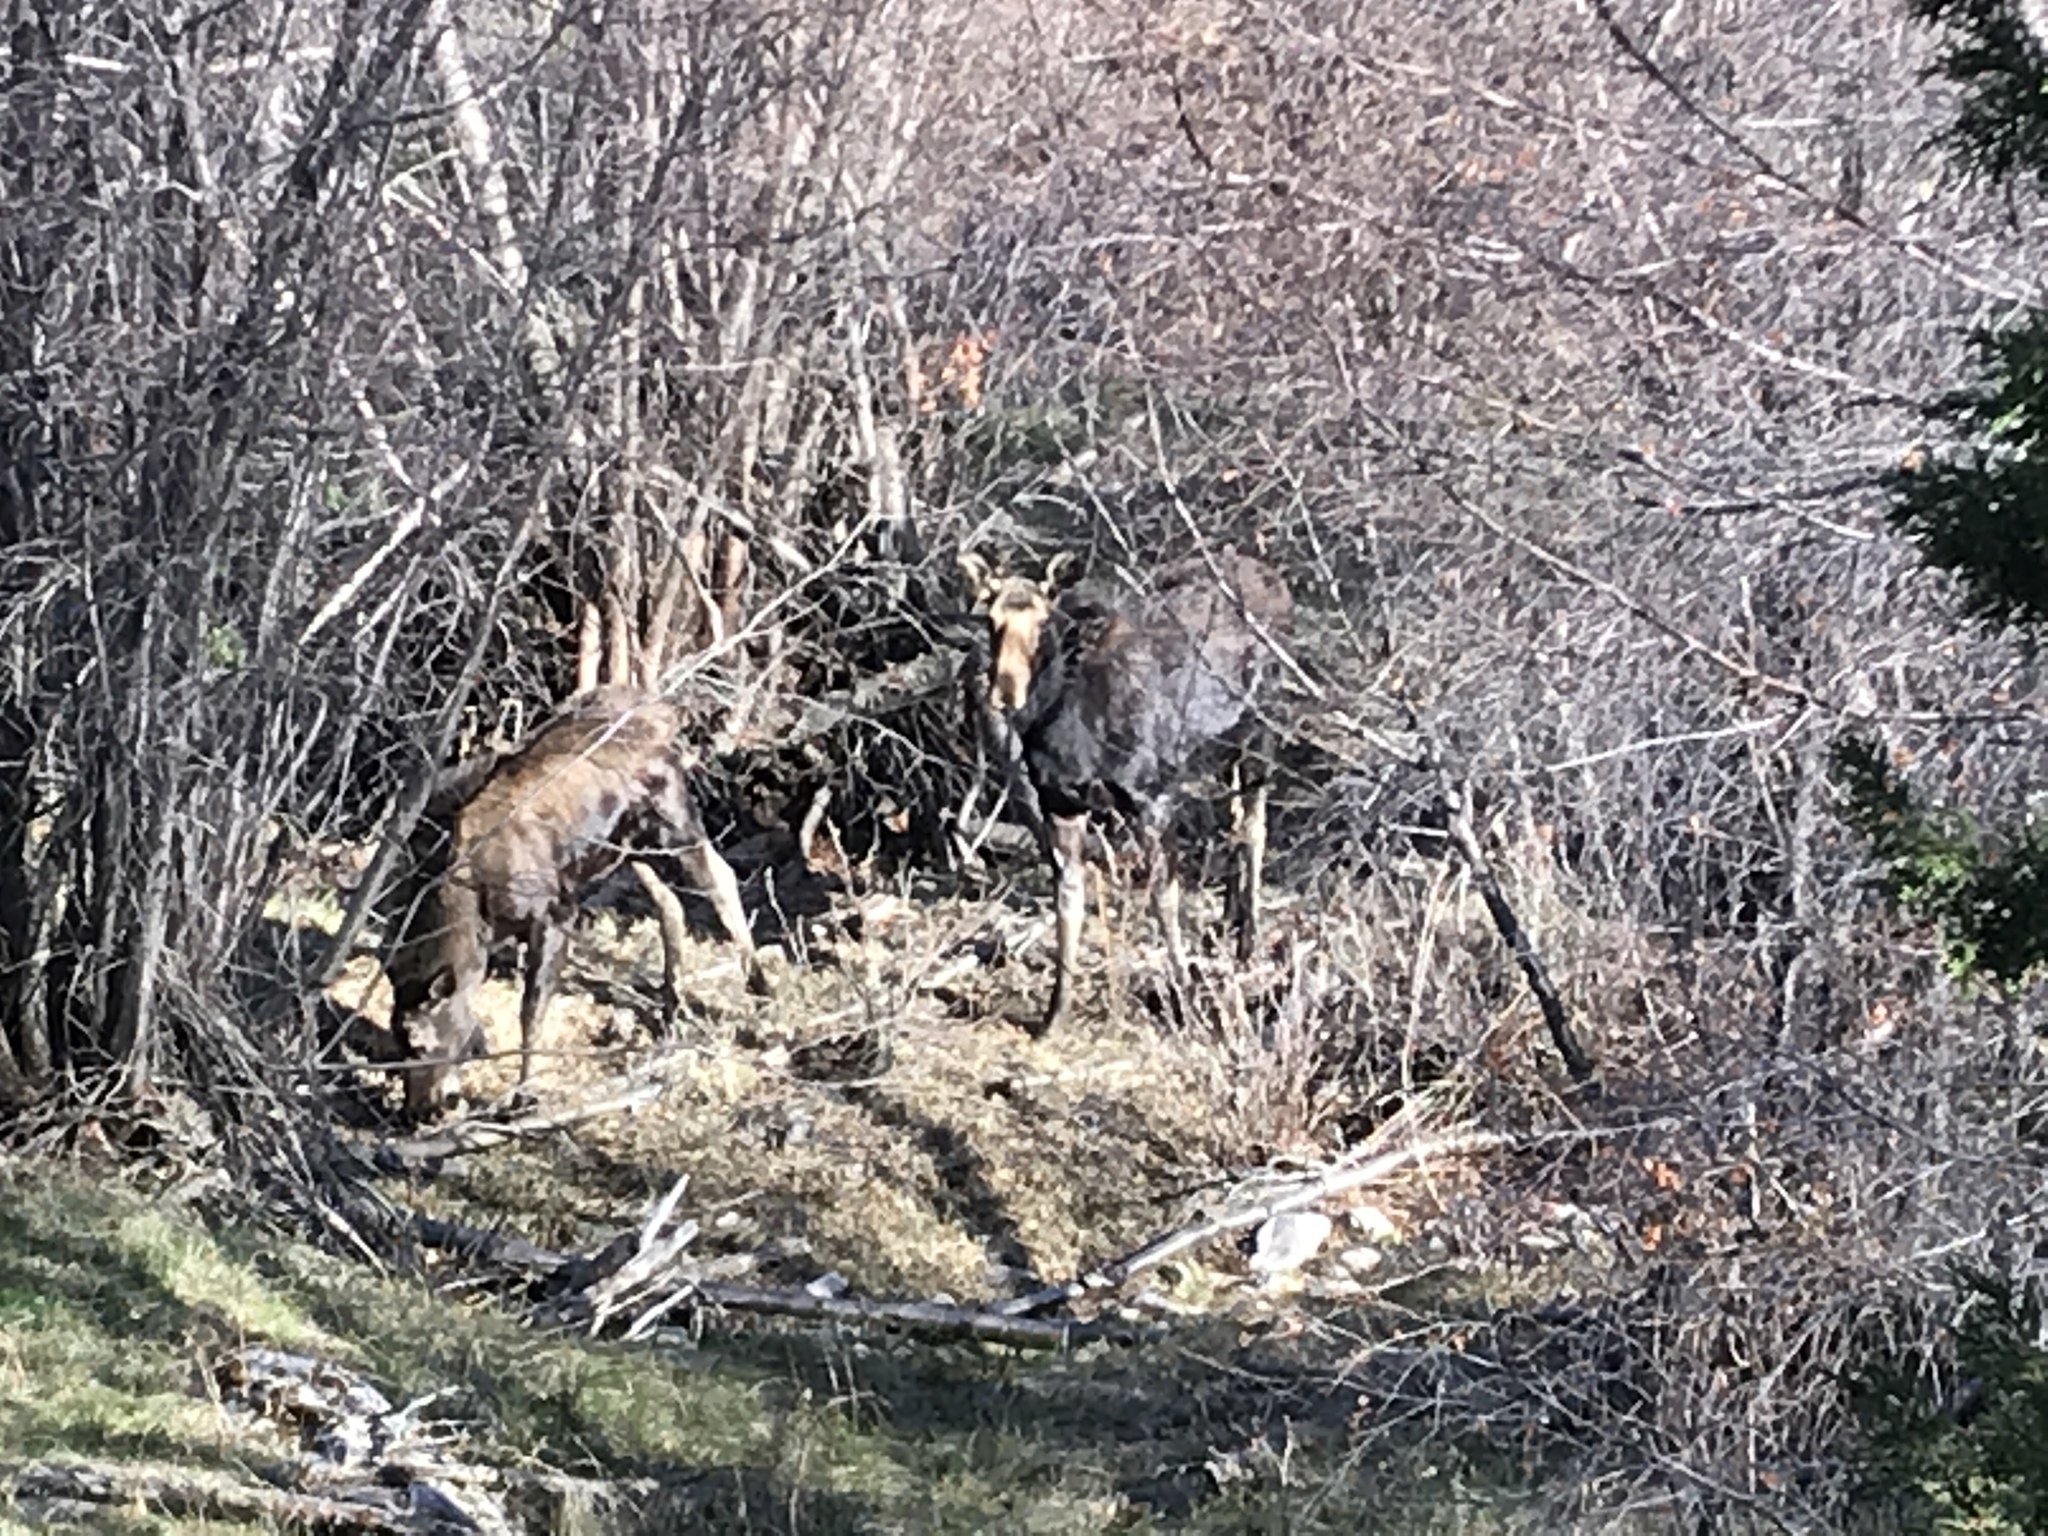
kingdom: Animalia
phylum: Chordata
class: Mammalia
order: Artiodactyla
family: Cervidae
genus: Alces
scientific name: Alces alces
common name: Moose
